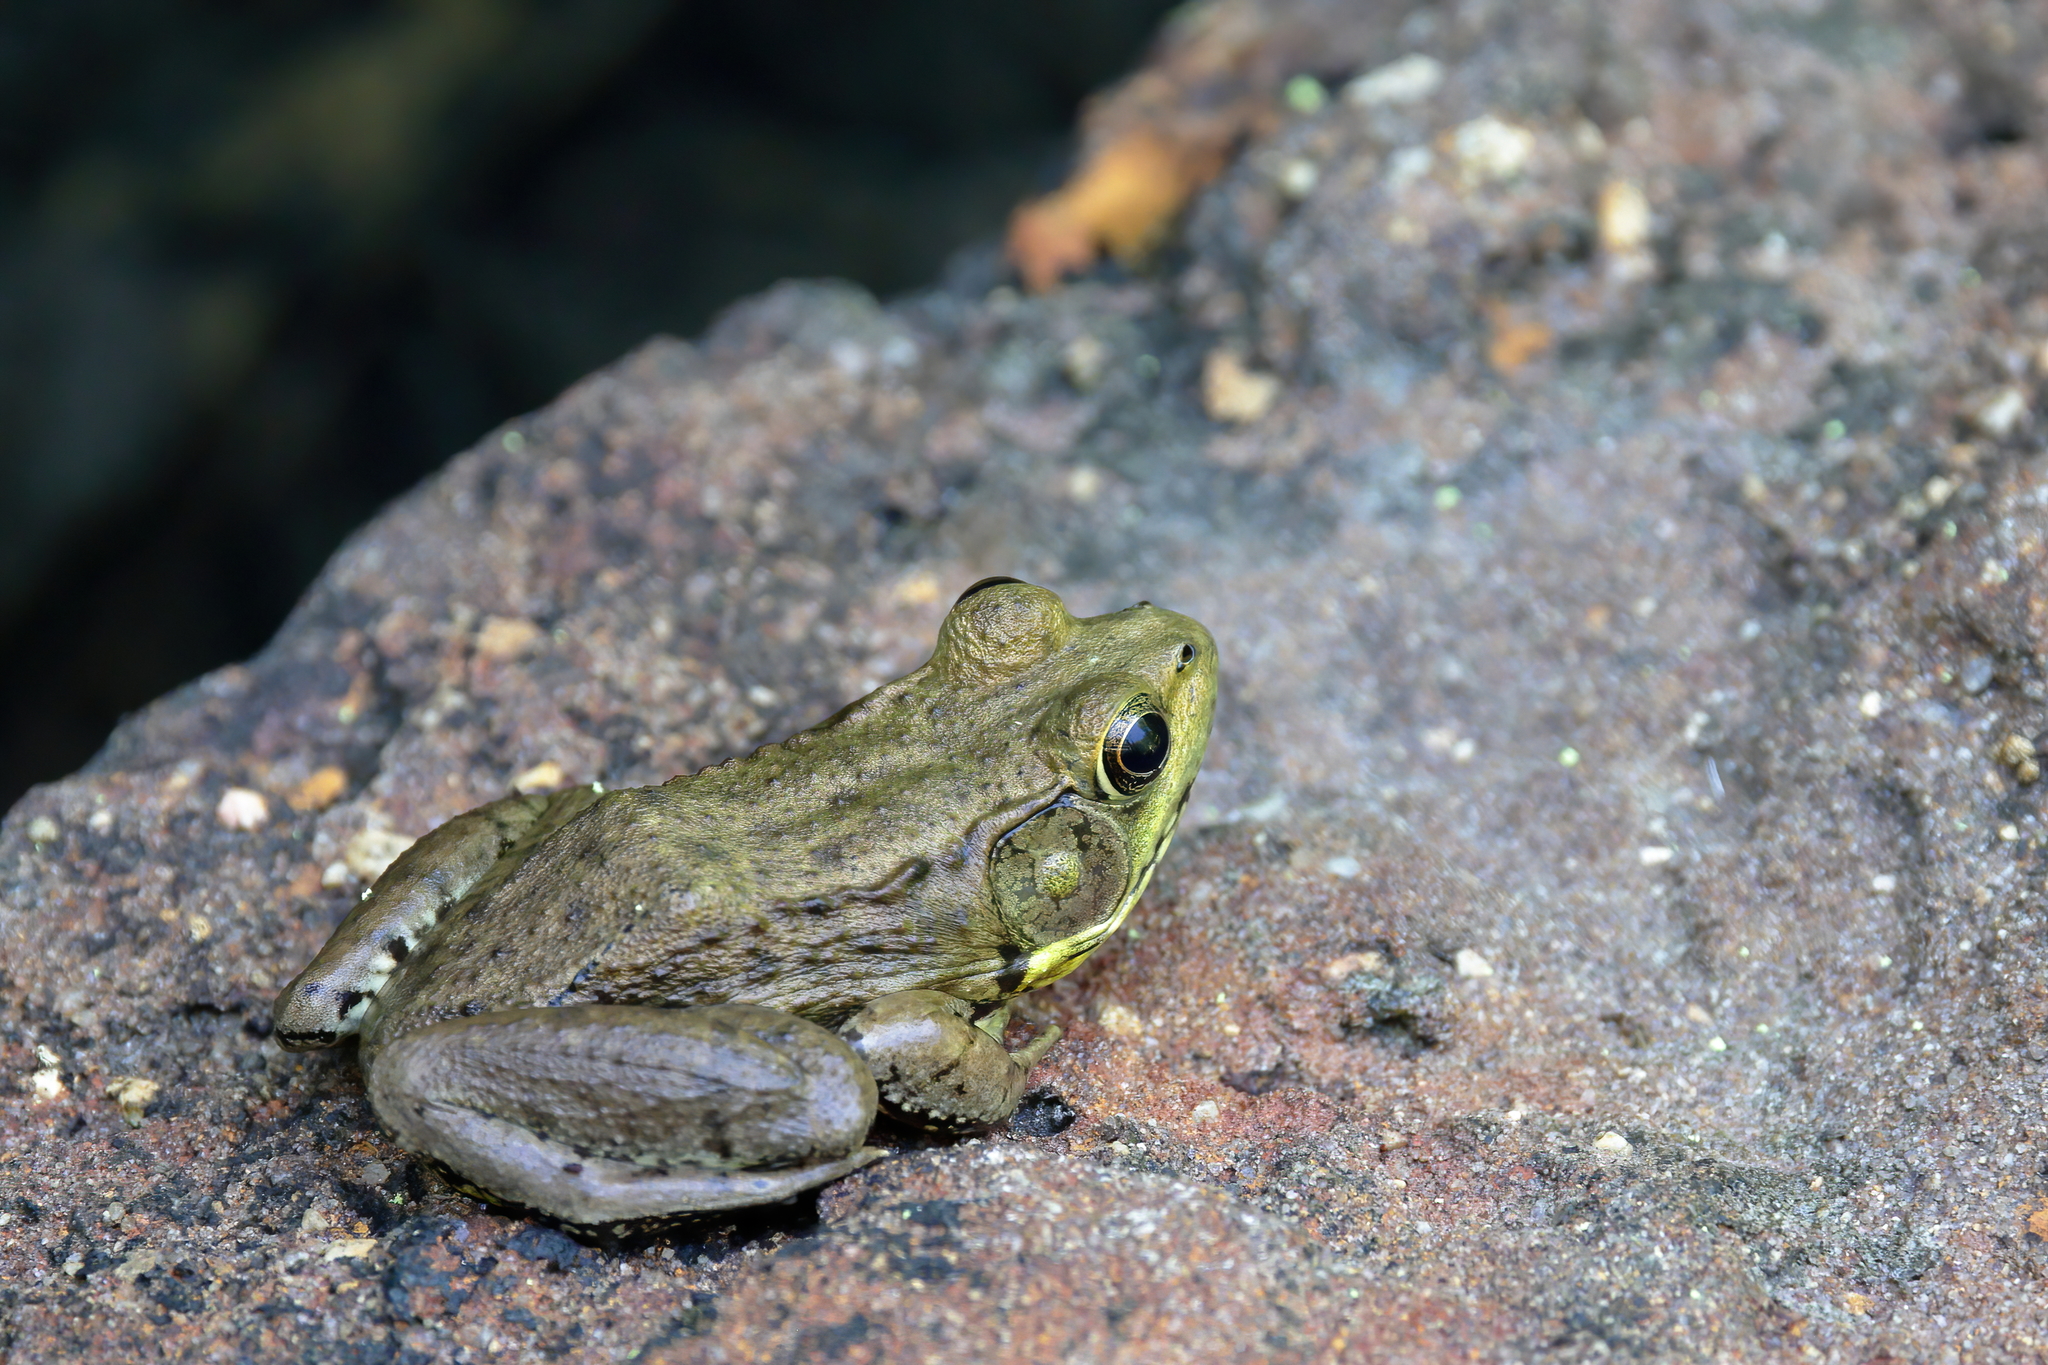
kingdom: Animalia
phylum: Chordata
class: Amphibia
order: Anura
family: Ranidae
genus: Lithobates
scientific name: Lithobates clamitans
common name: Green frog
